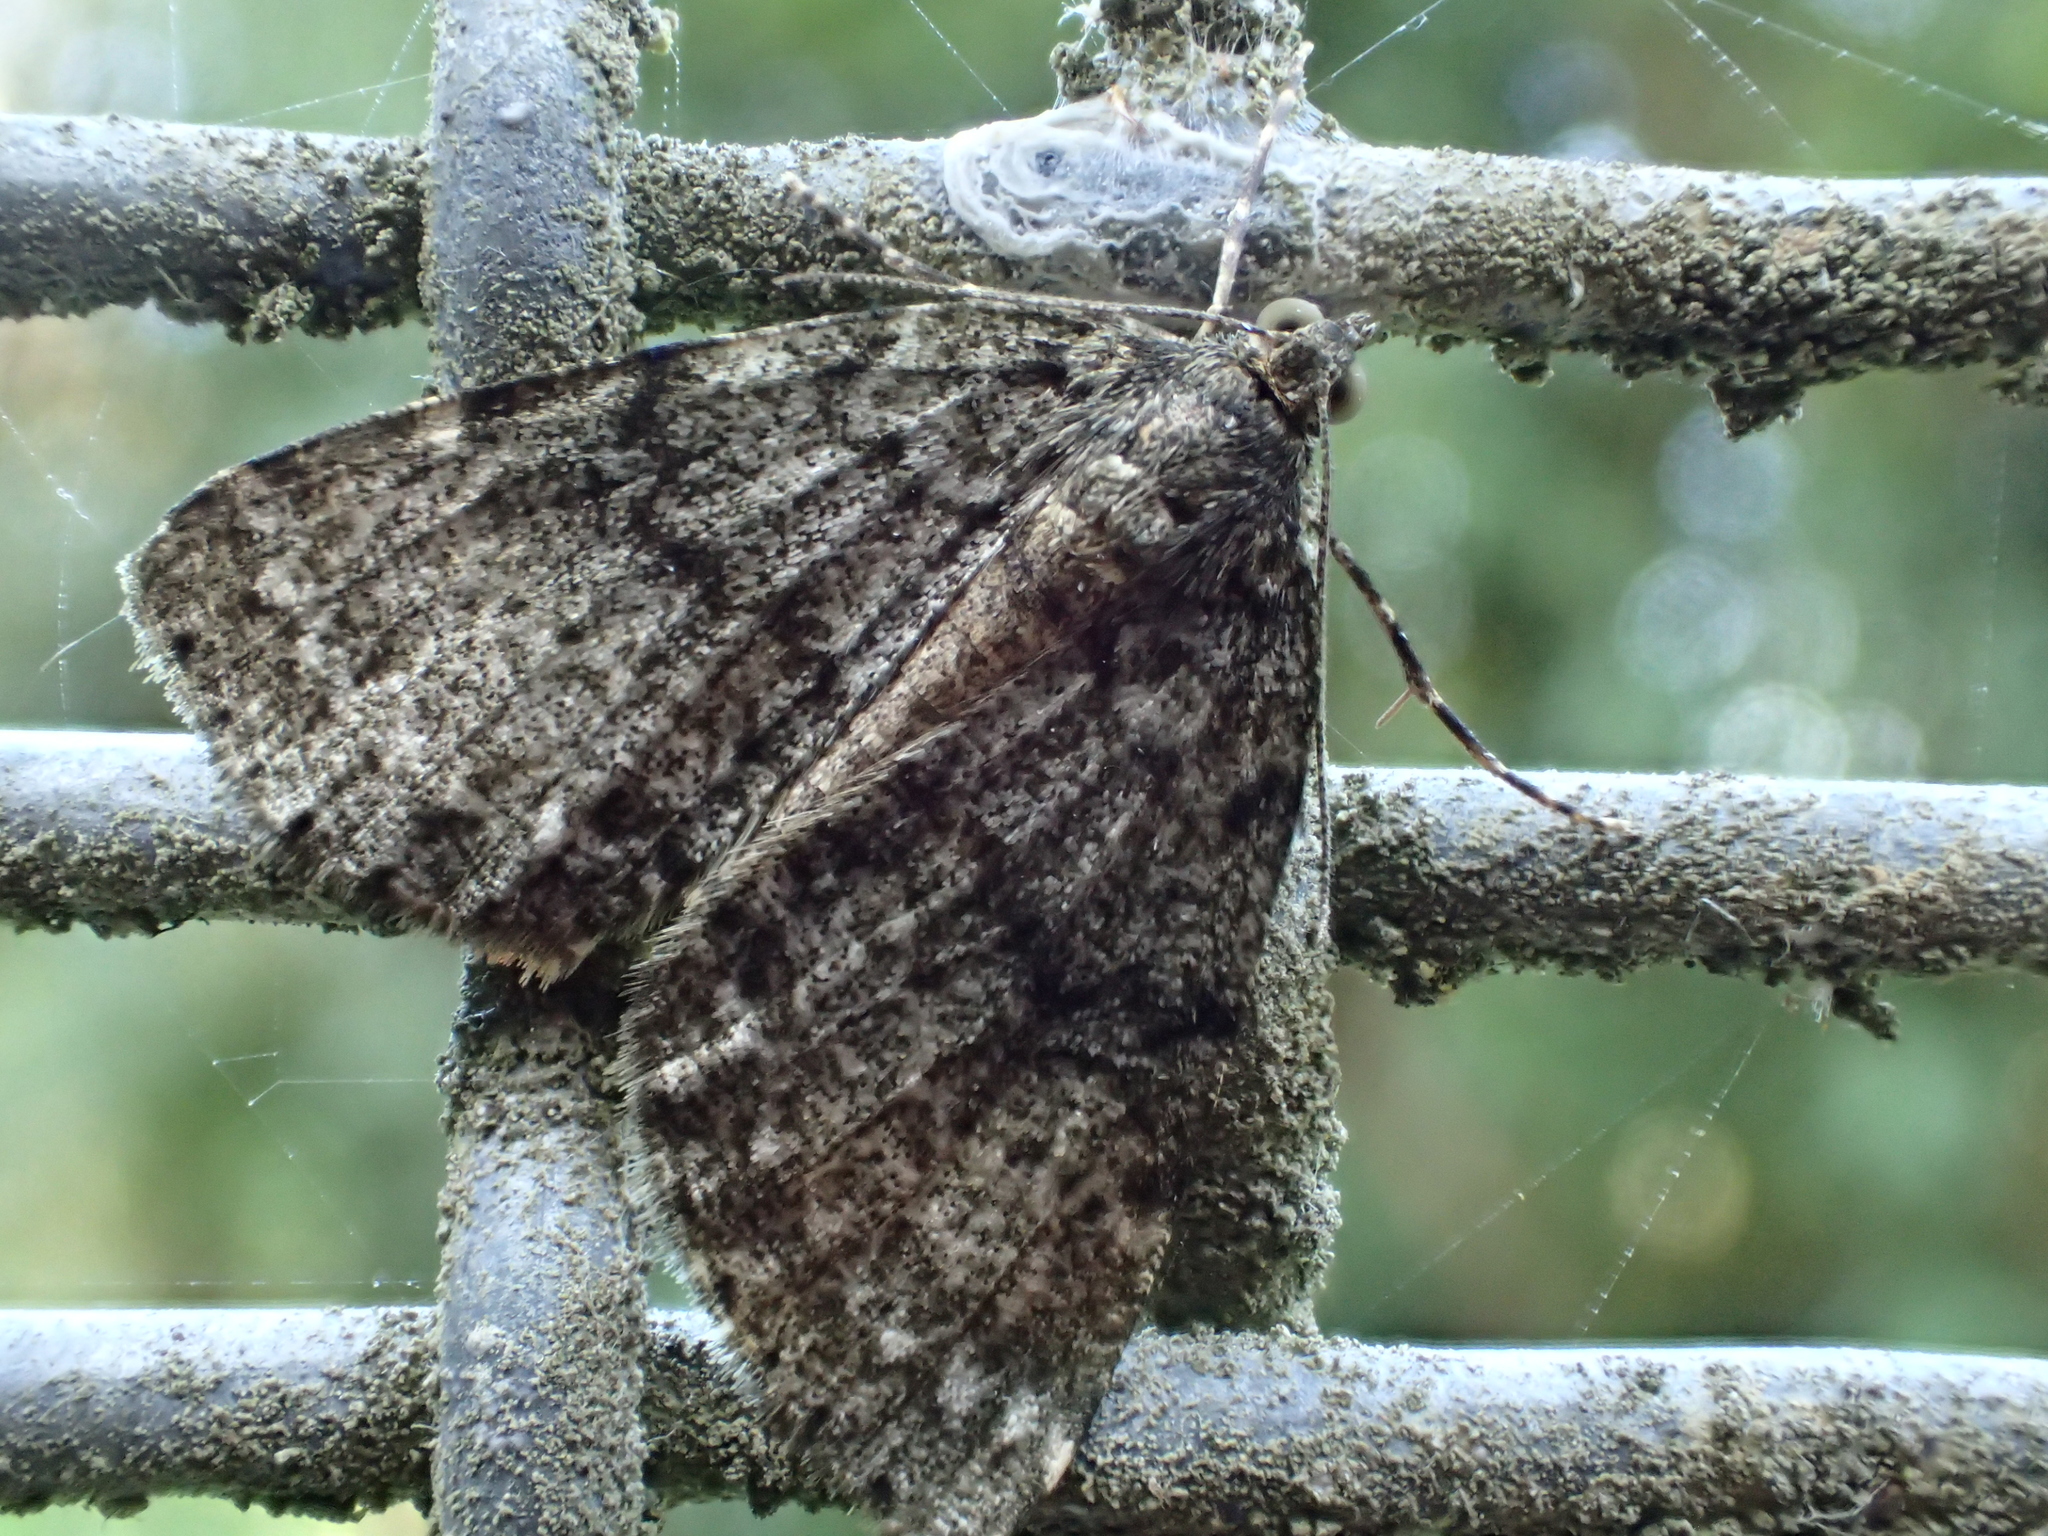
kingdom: Animalia
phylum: Arthropoda
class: Insecta
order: Lepidoptera
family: Geometridae
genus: Pseudocoremia
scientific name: Pseudocoremia indistincta
